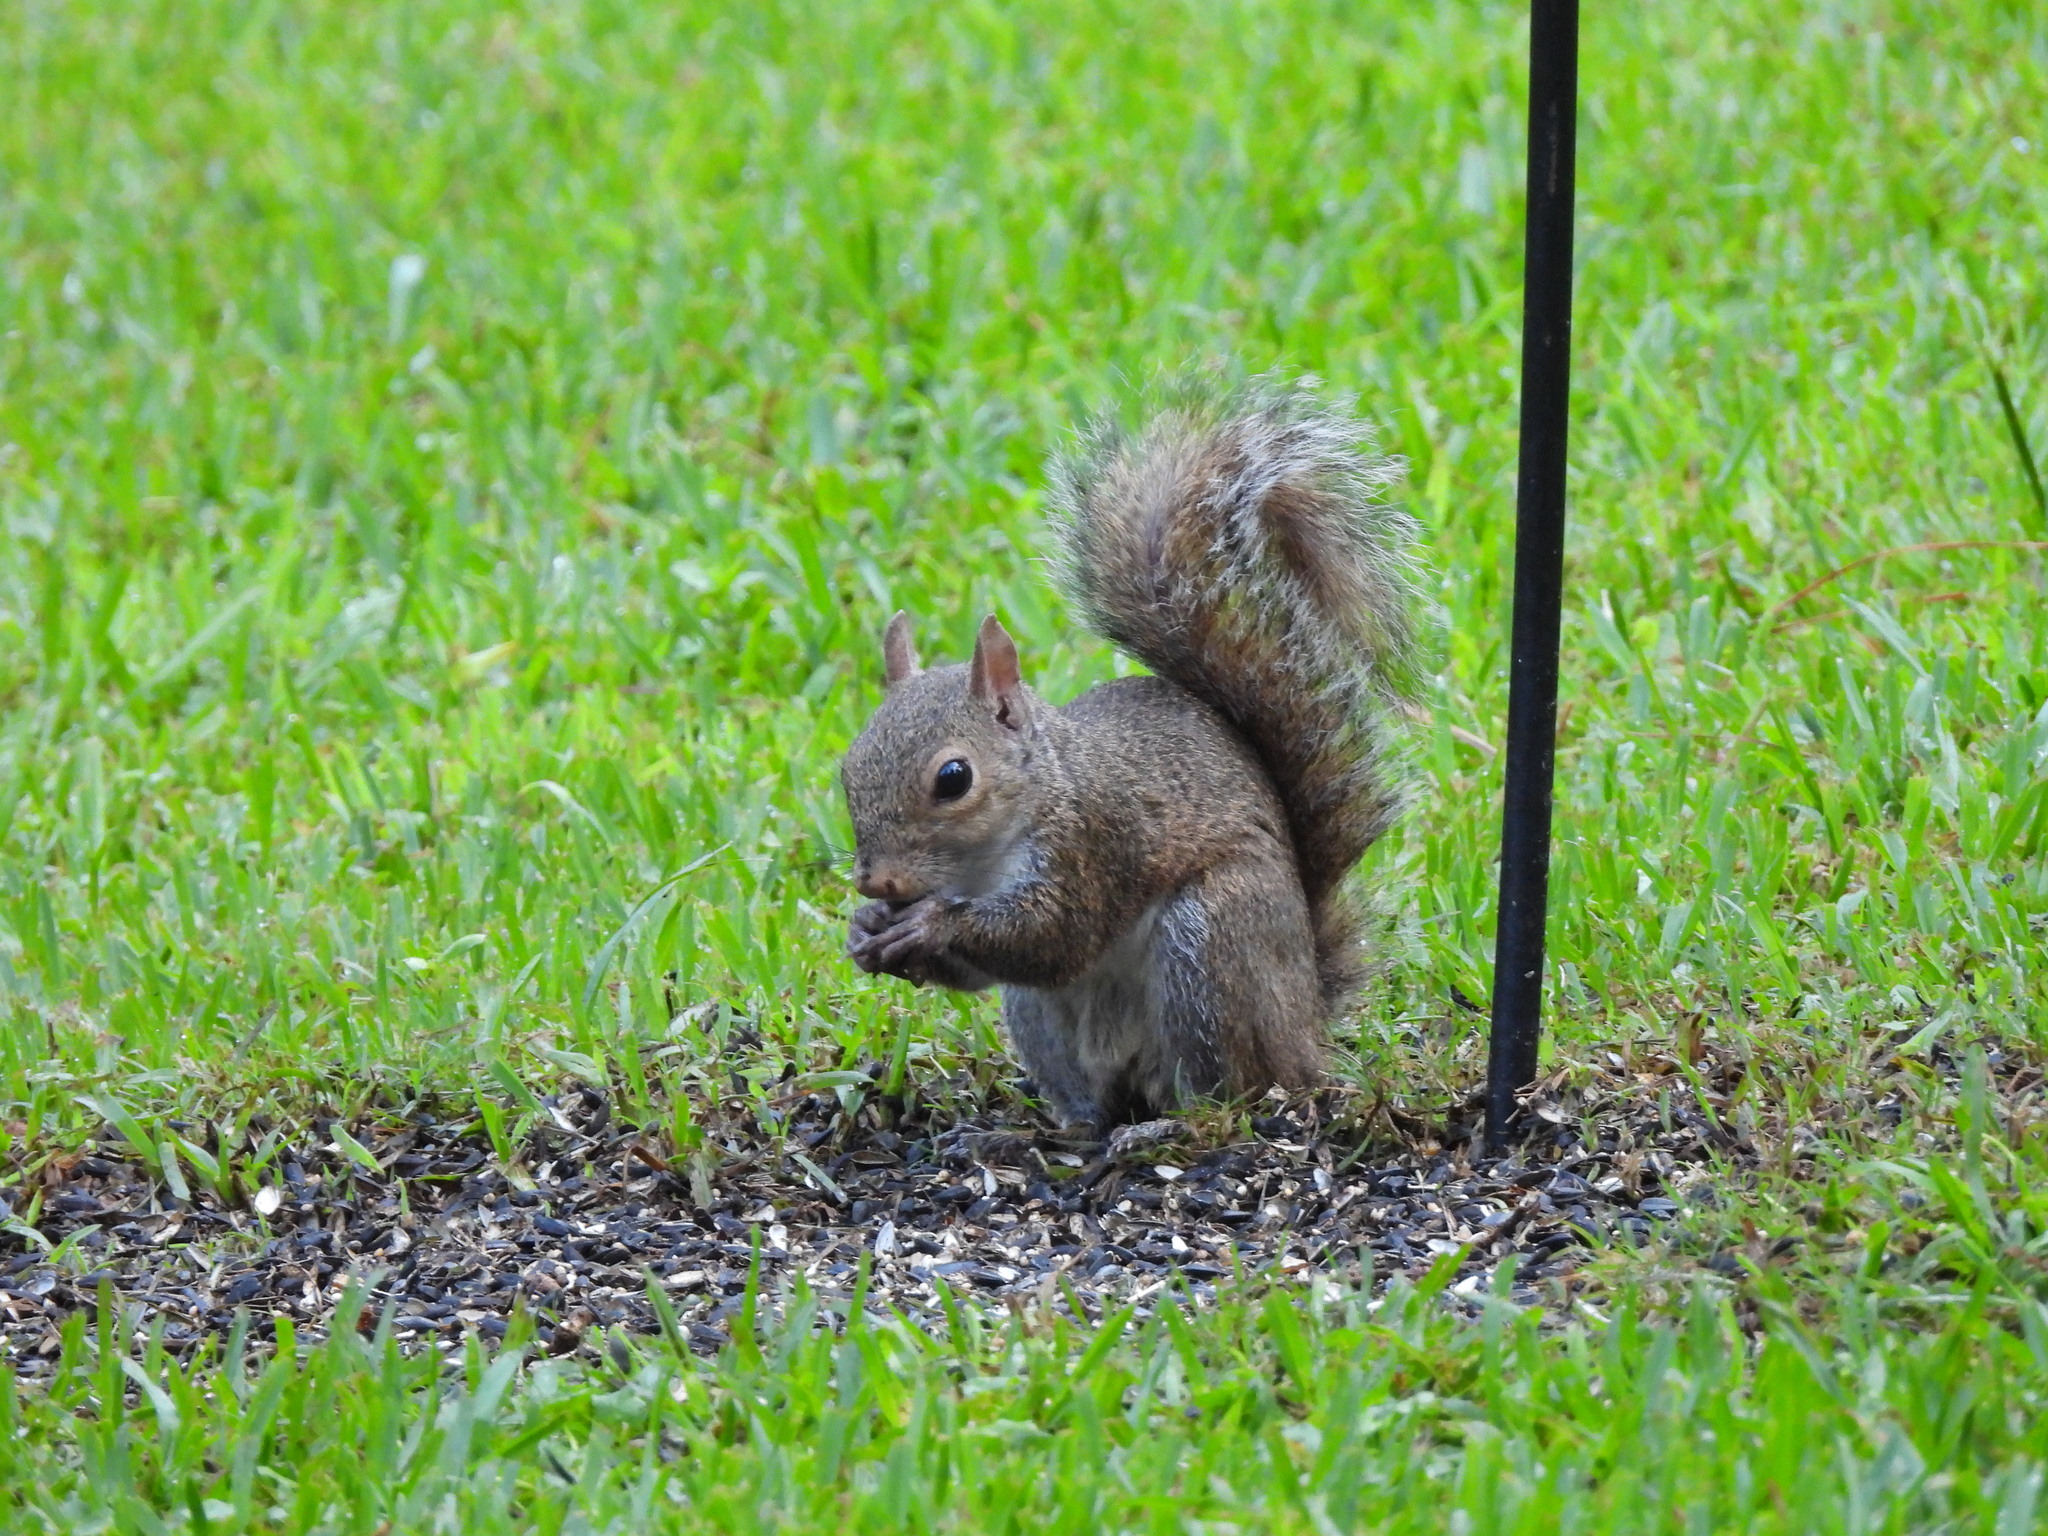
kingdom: Animalia
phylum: Chordata
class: Mammalia
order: Rodentia
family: Sciuridae
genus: Sciurus
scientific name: Sciurus carolinensis
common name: Eastern gray squirrel
